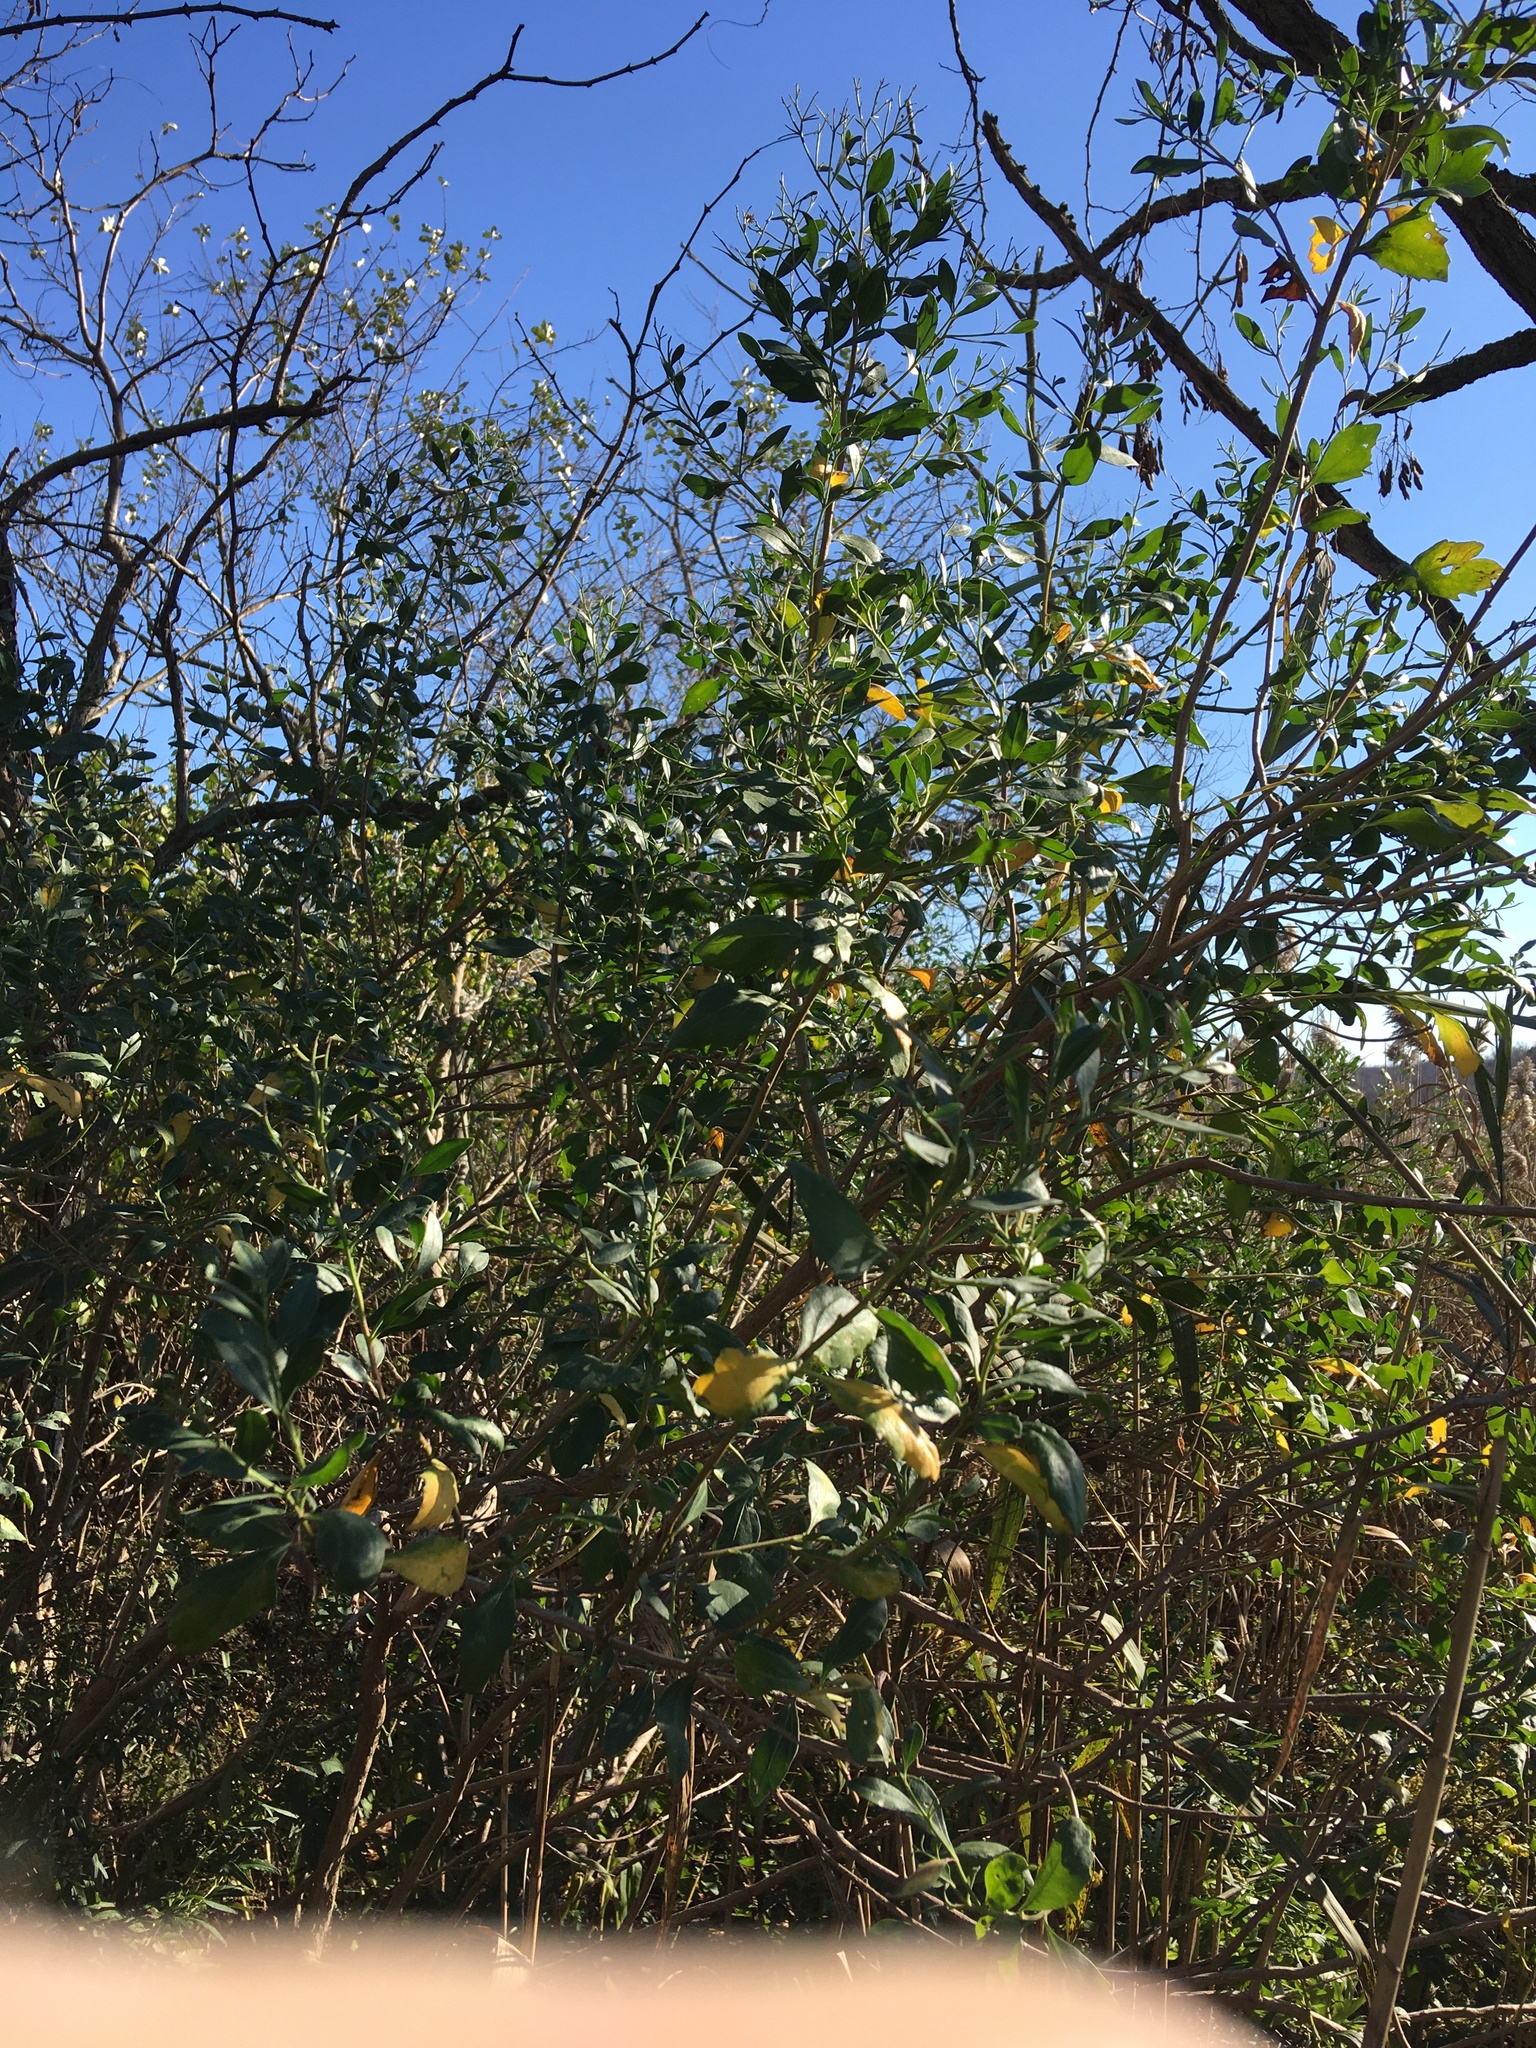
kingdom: Plantae
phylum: Tracheophyta
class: Magnoliopsida
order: Asterales
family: Asteraceae
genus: Baccharis
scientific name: Baccharis halimifolia
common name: Eastern baccharis
